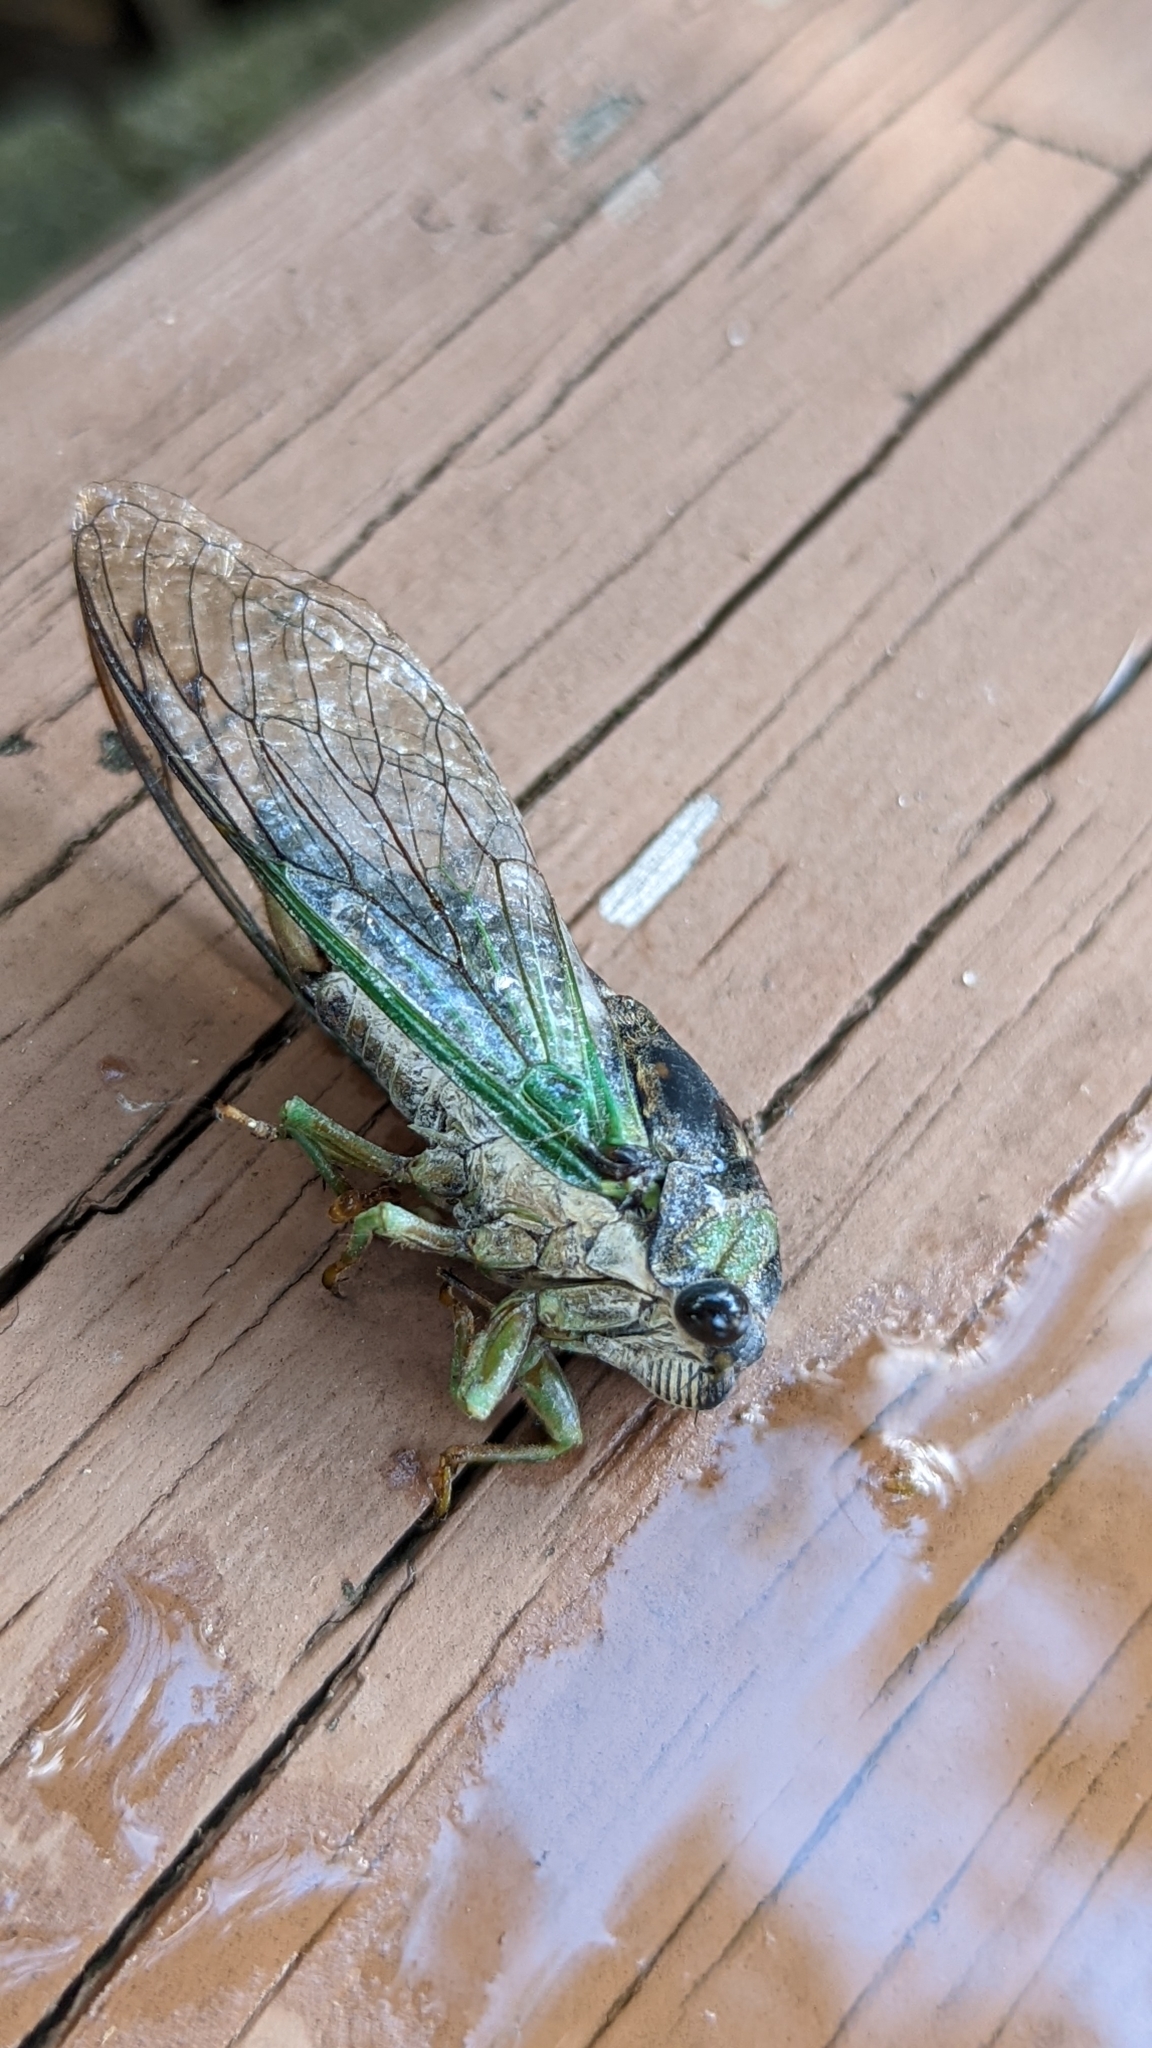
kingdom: Animalia
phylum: Arthropoda
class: Insecta
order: Hemiptera
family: Cicadidae
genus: Neotibicen
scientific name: Neotibicen tibicen
